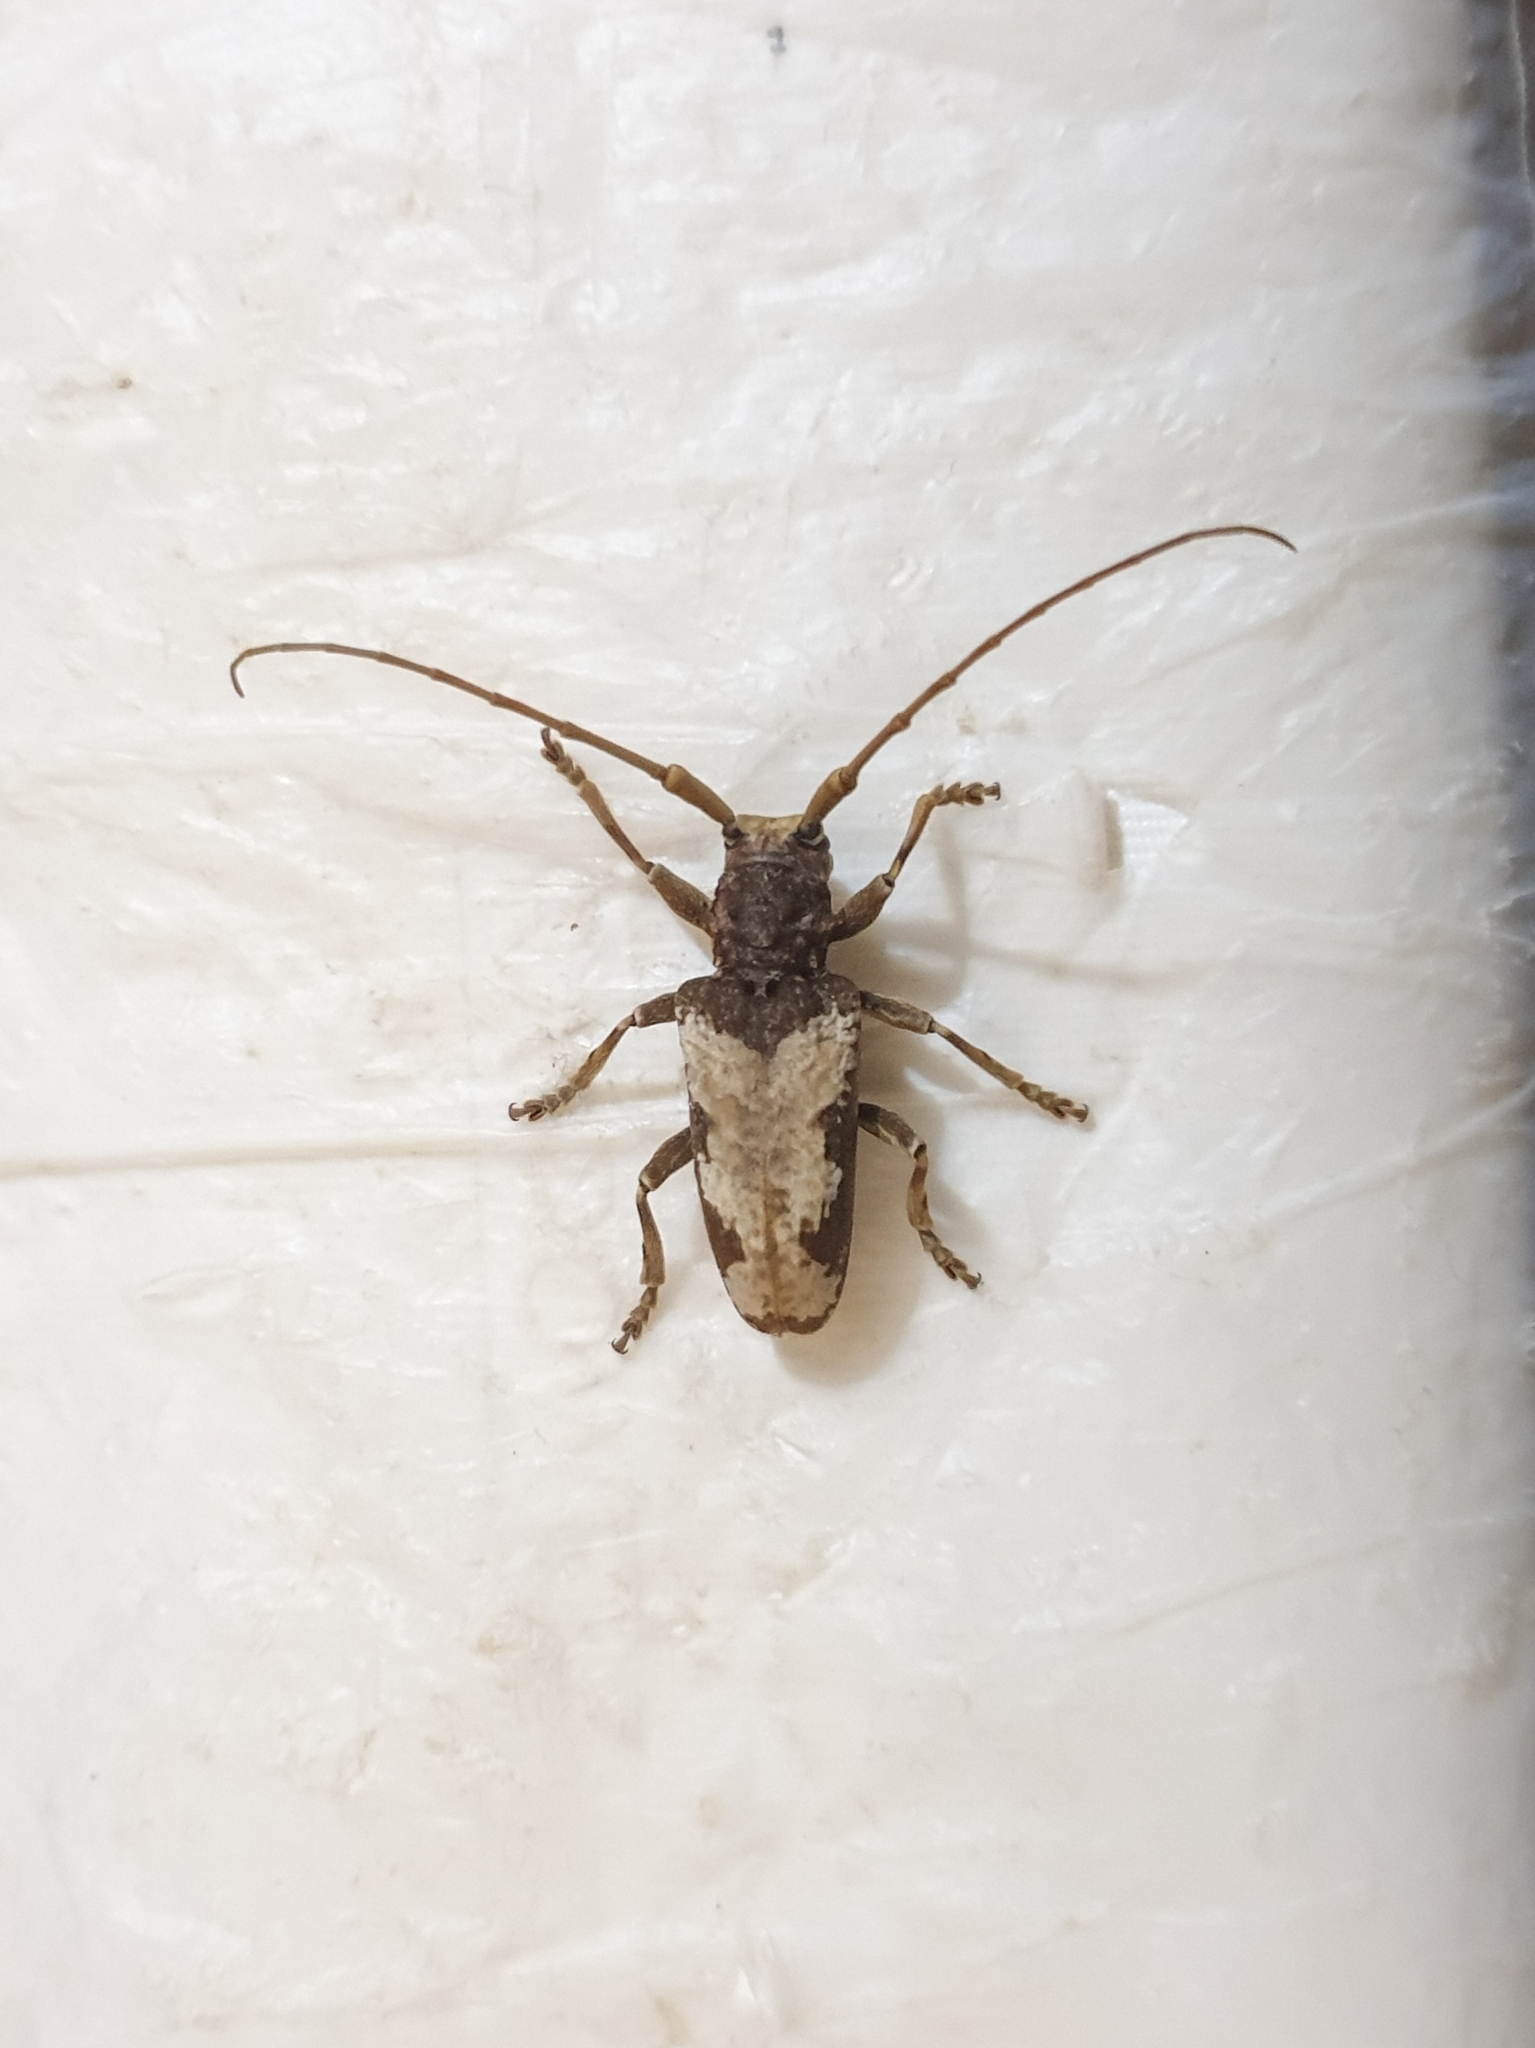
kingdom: Animalia
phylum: Arthropoda
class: Insecta
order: Coleoptera
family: Cerambycidae
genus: Acalolepta
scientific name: Acalolepta nivosa
